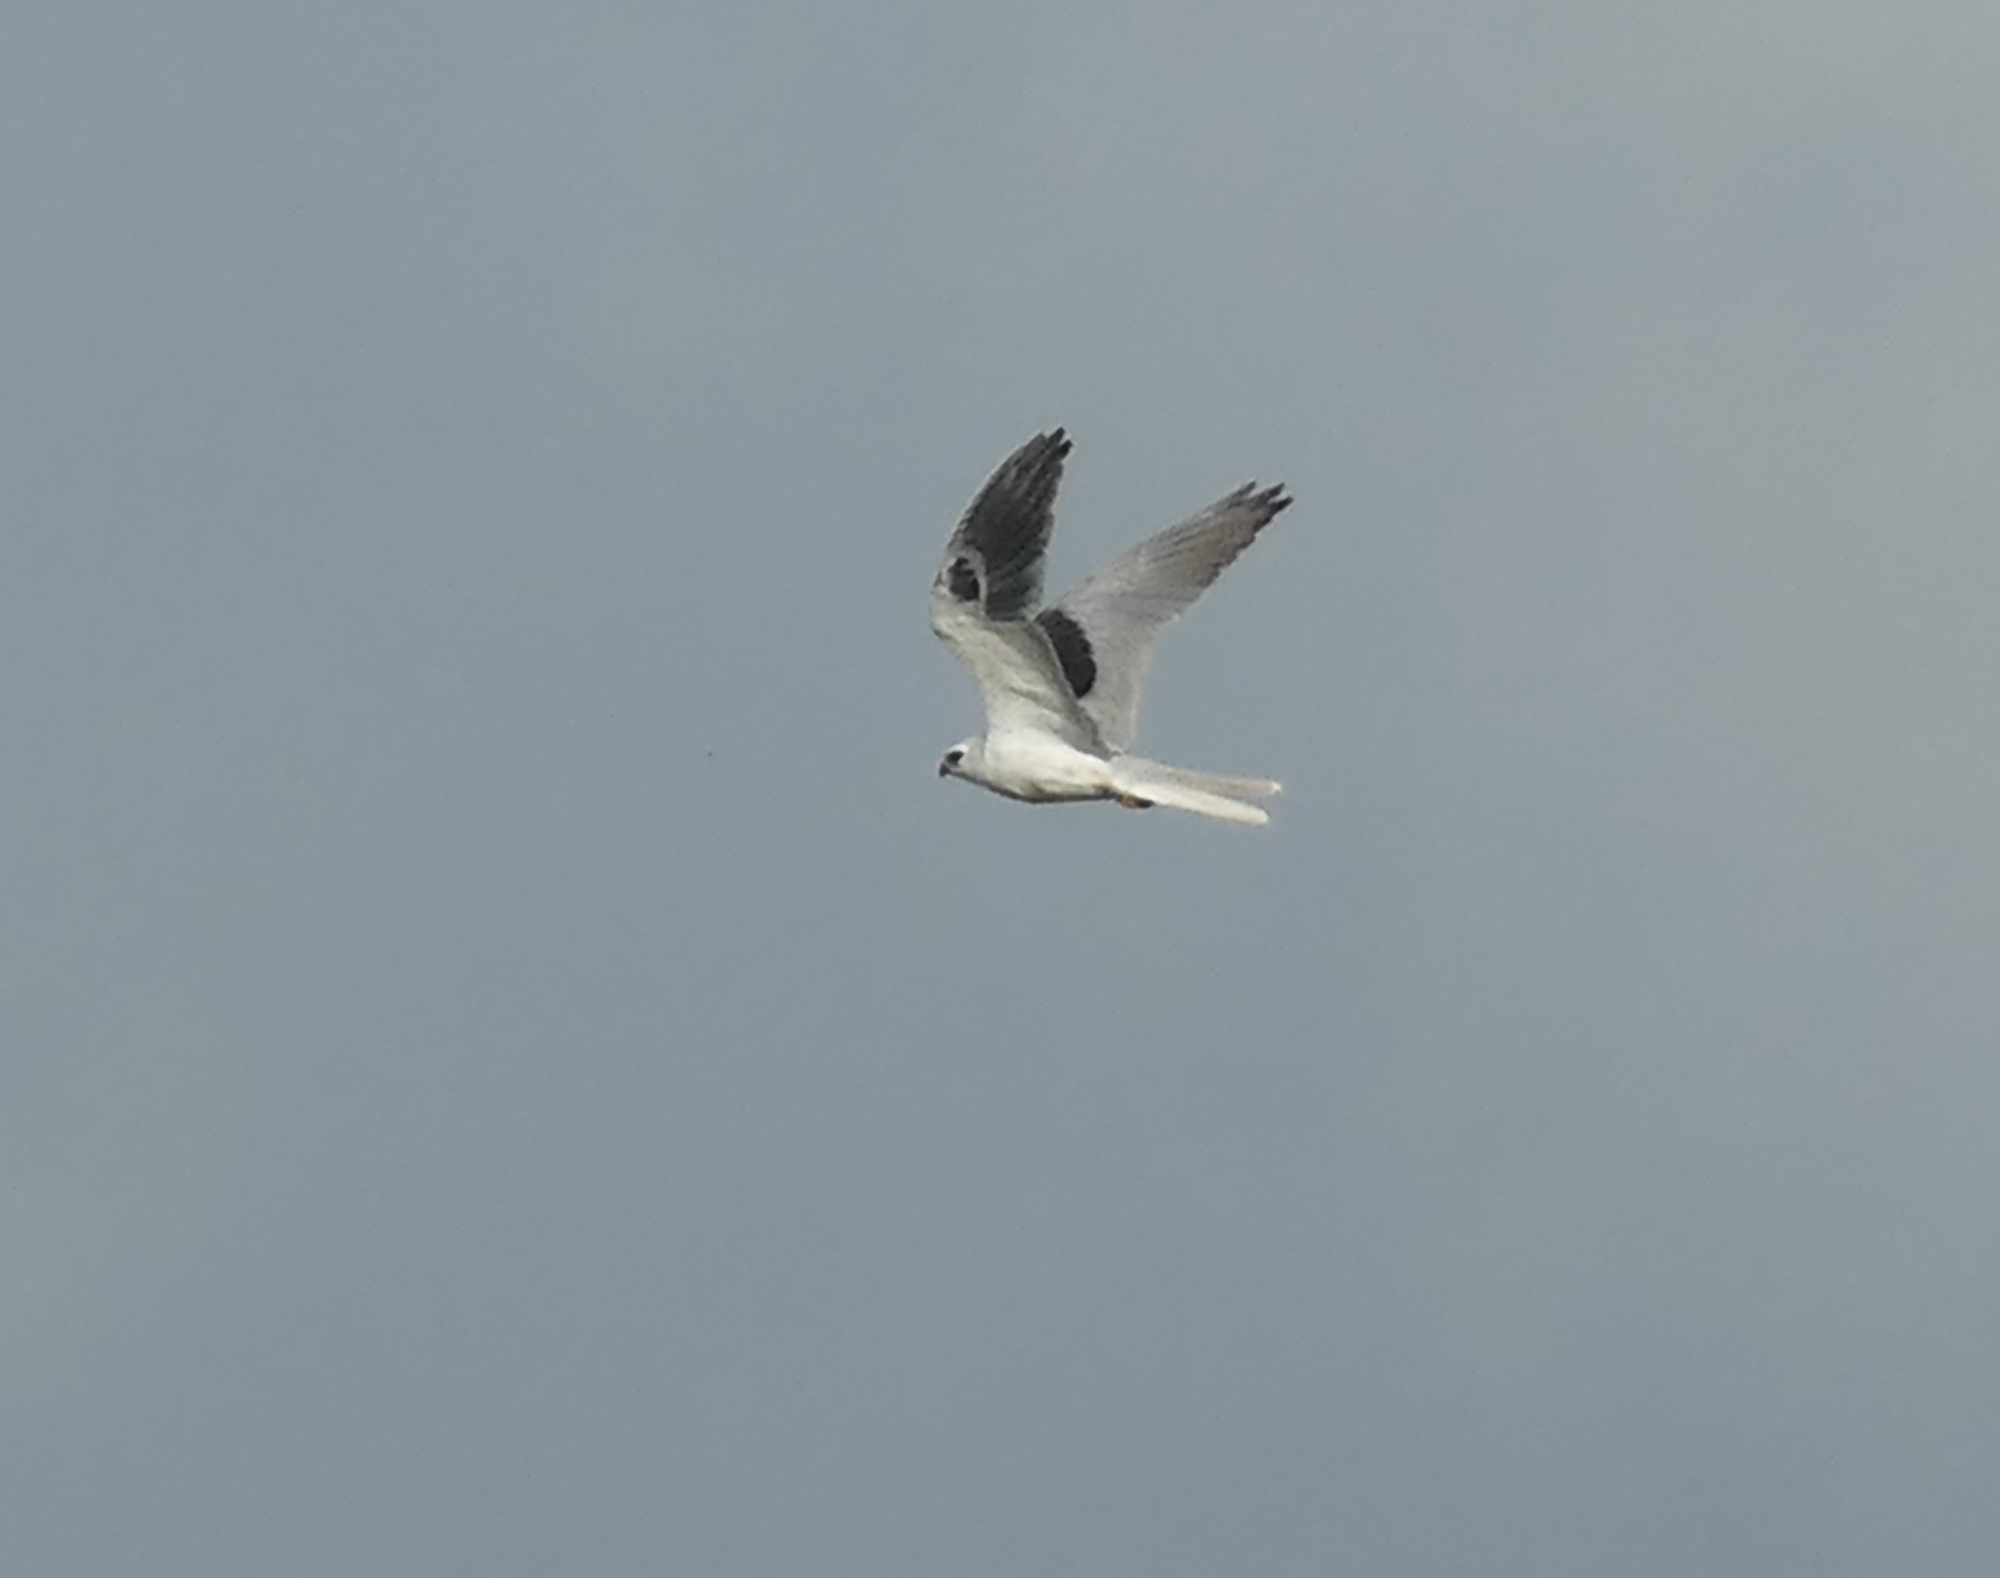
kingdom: Animalia
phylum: Chordata
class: Aves
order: Accipitriformes
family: Accipitridae
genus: Elanus
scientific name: Elanus leucurus
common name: White-tailed kite
